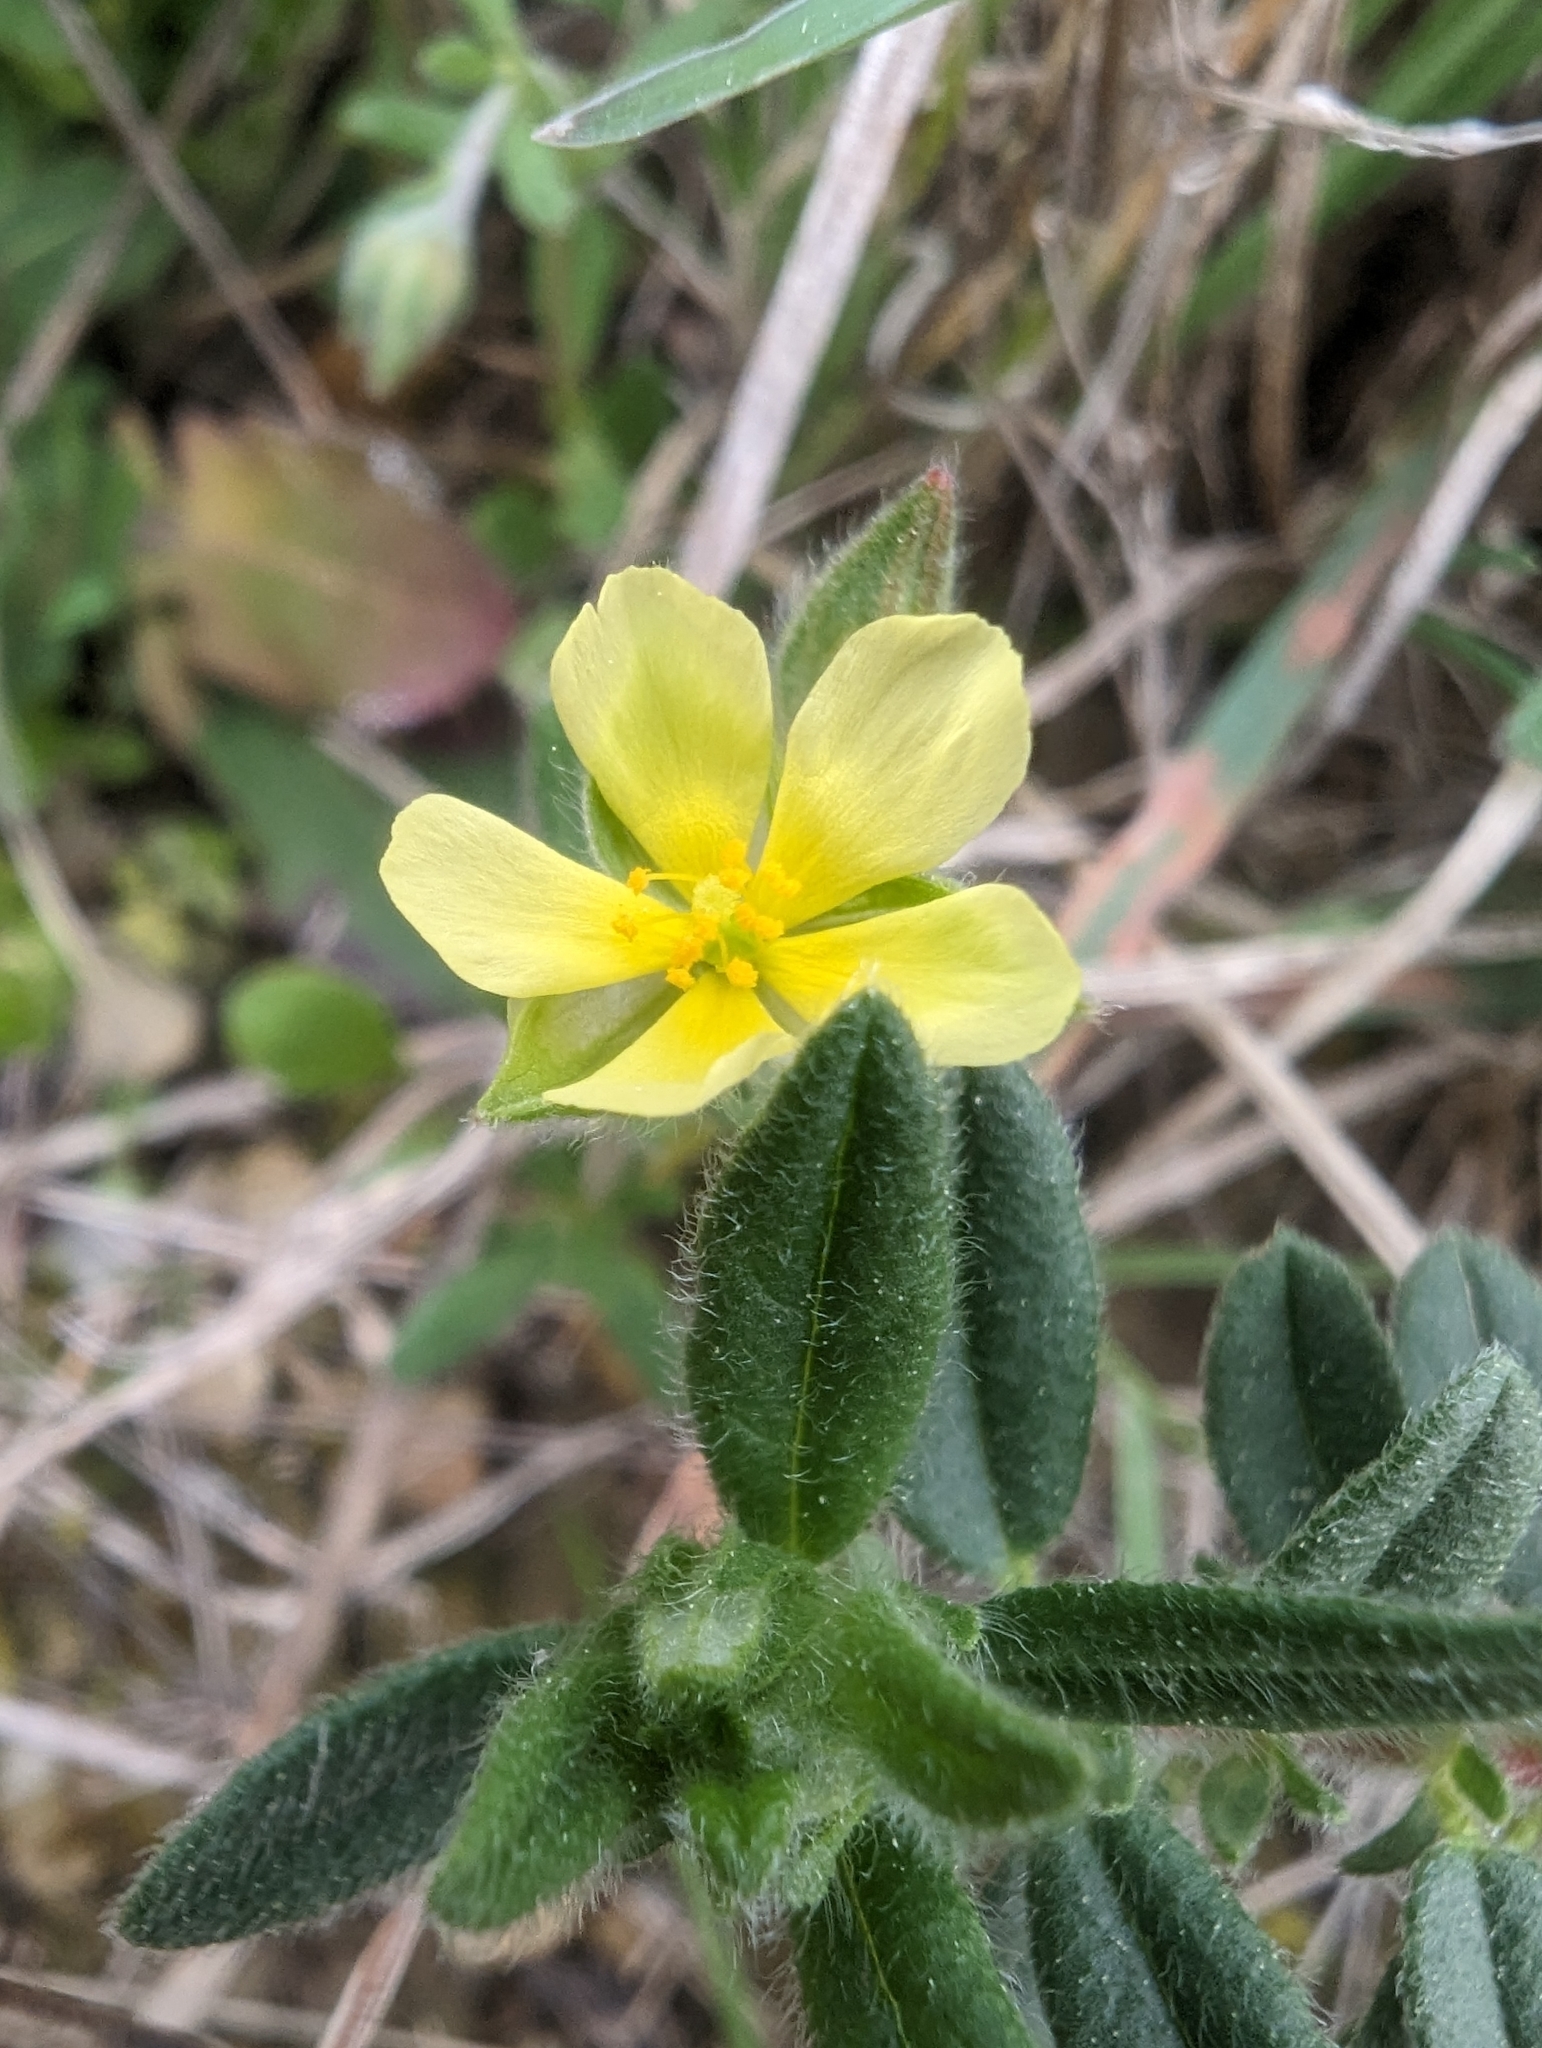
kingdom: Plantae
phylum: Tracheophyta
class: Magnoliopsida
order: Malvales
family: Cistaceae
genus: Helianthemum
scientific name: Helianthemum salicifolium
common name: Willowleaf frostweed
